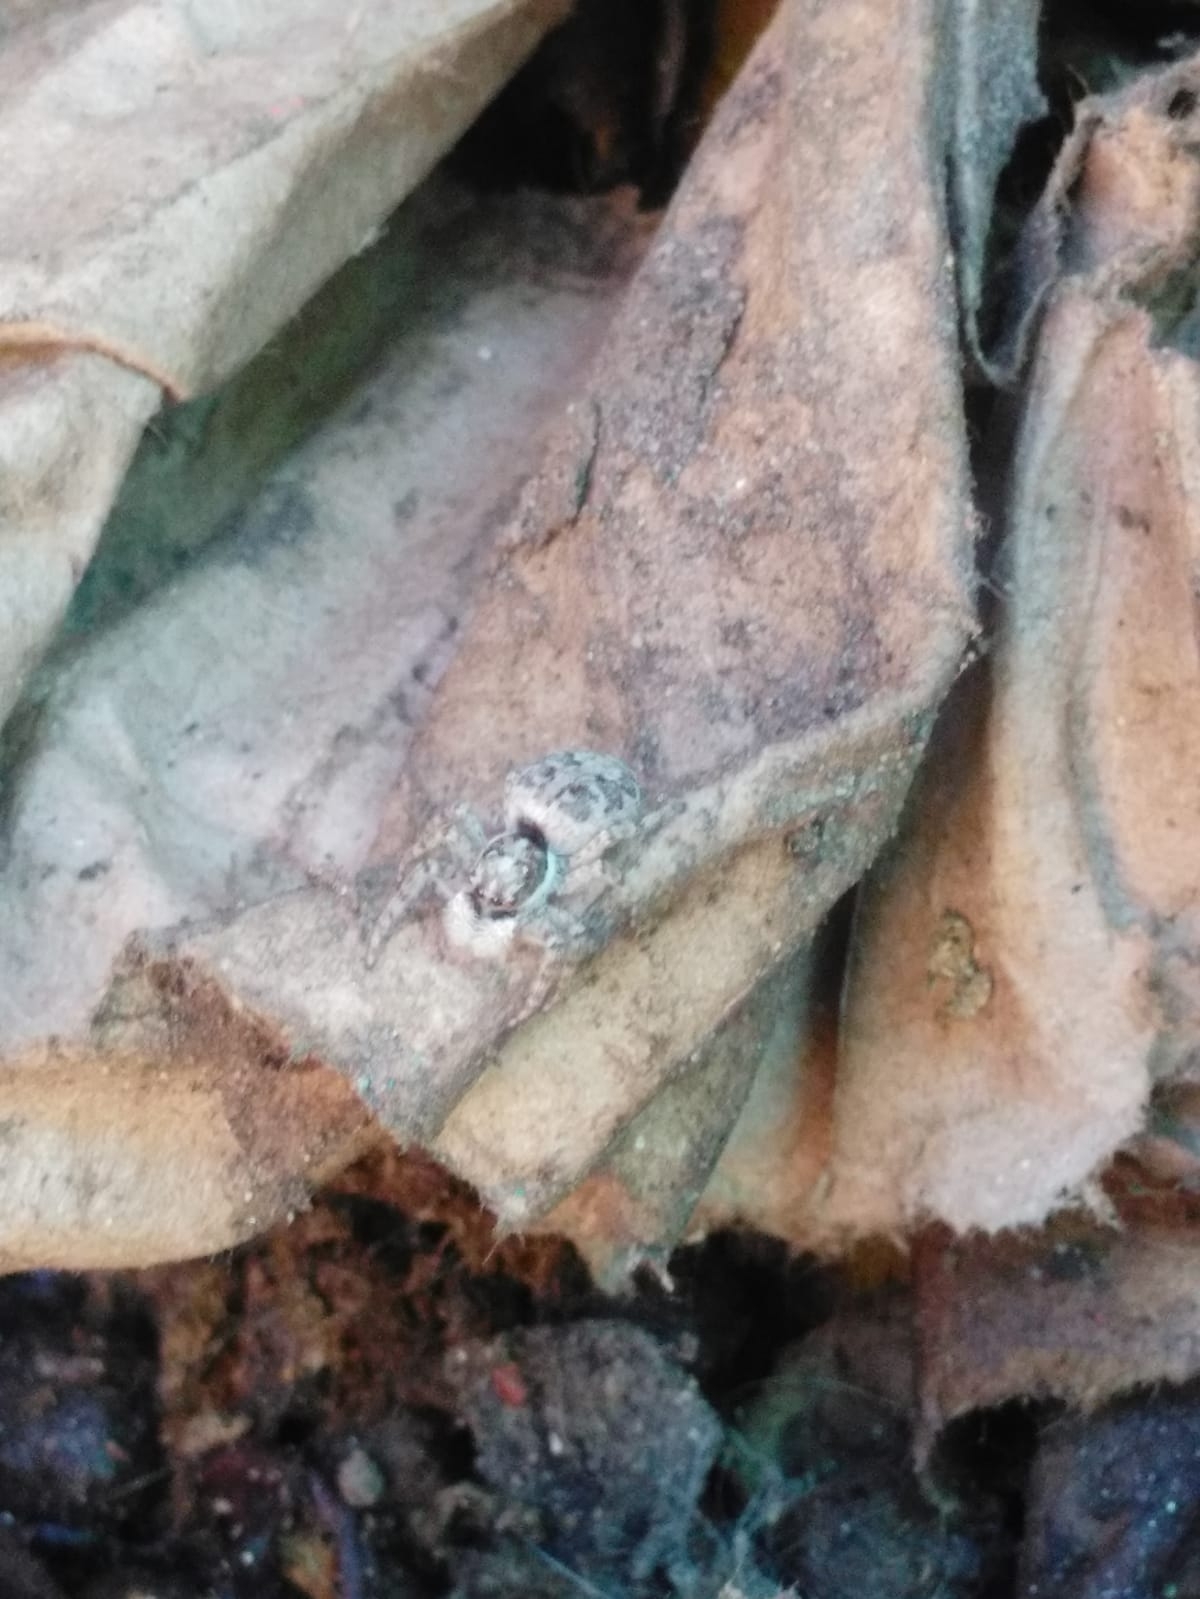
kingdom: Animalia
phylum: Arthropoda
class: Arachnida
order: Araneae
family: Salticidae
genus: Menemerus
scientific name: Menemerus semilimbatus
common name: Jumping spider
